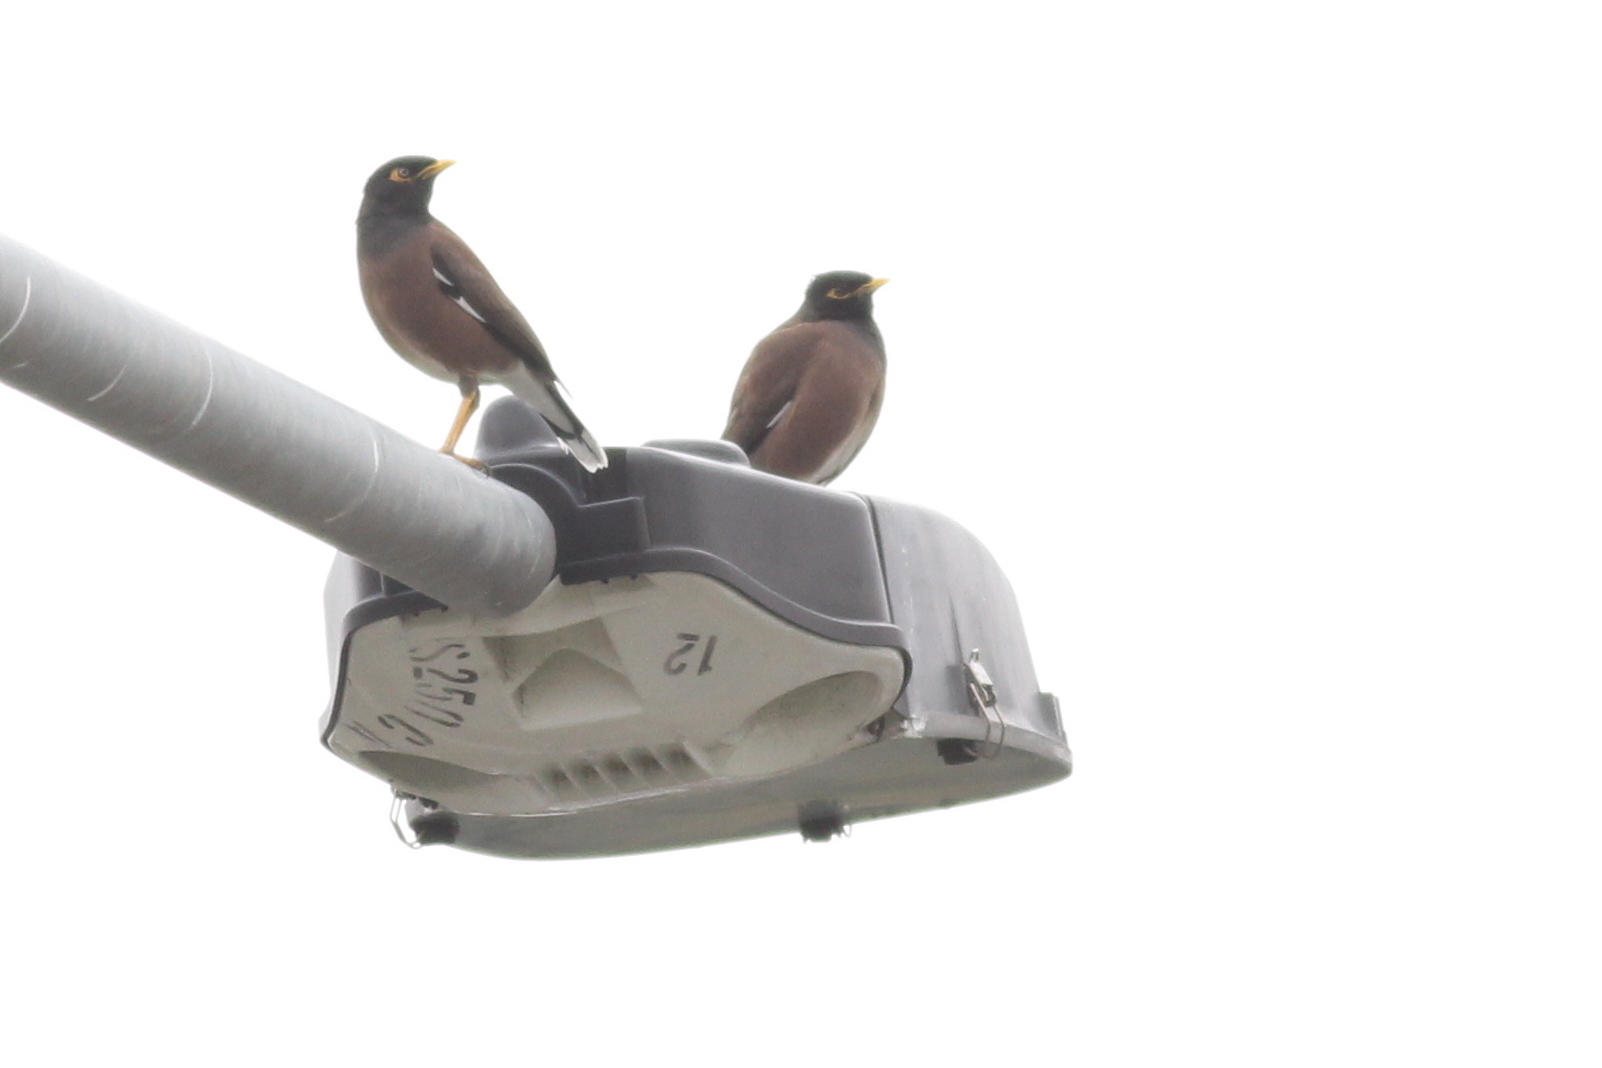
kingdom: Animalia
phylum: Chordata
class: Aves
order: Passeriformes
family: Sturnidae
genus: Acridotheres
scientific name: Acridotheres tristis
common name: Common myna
